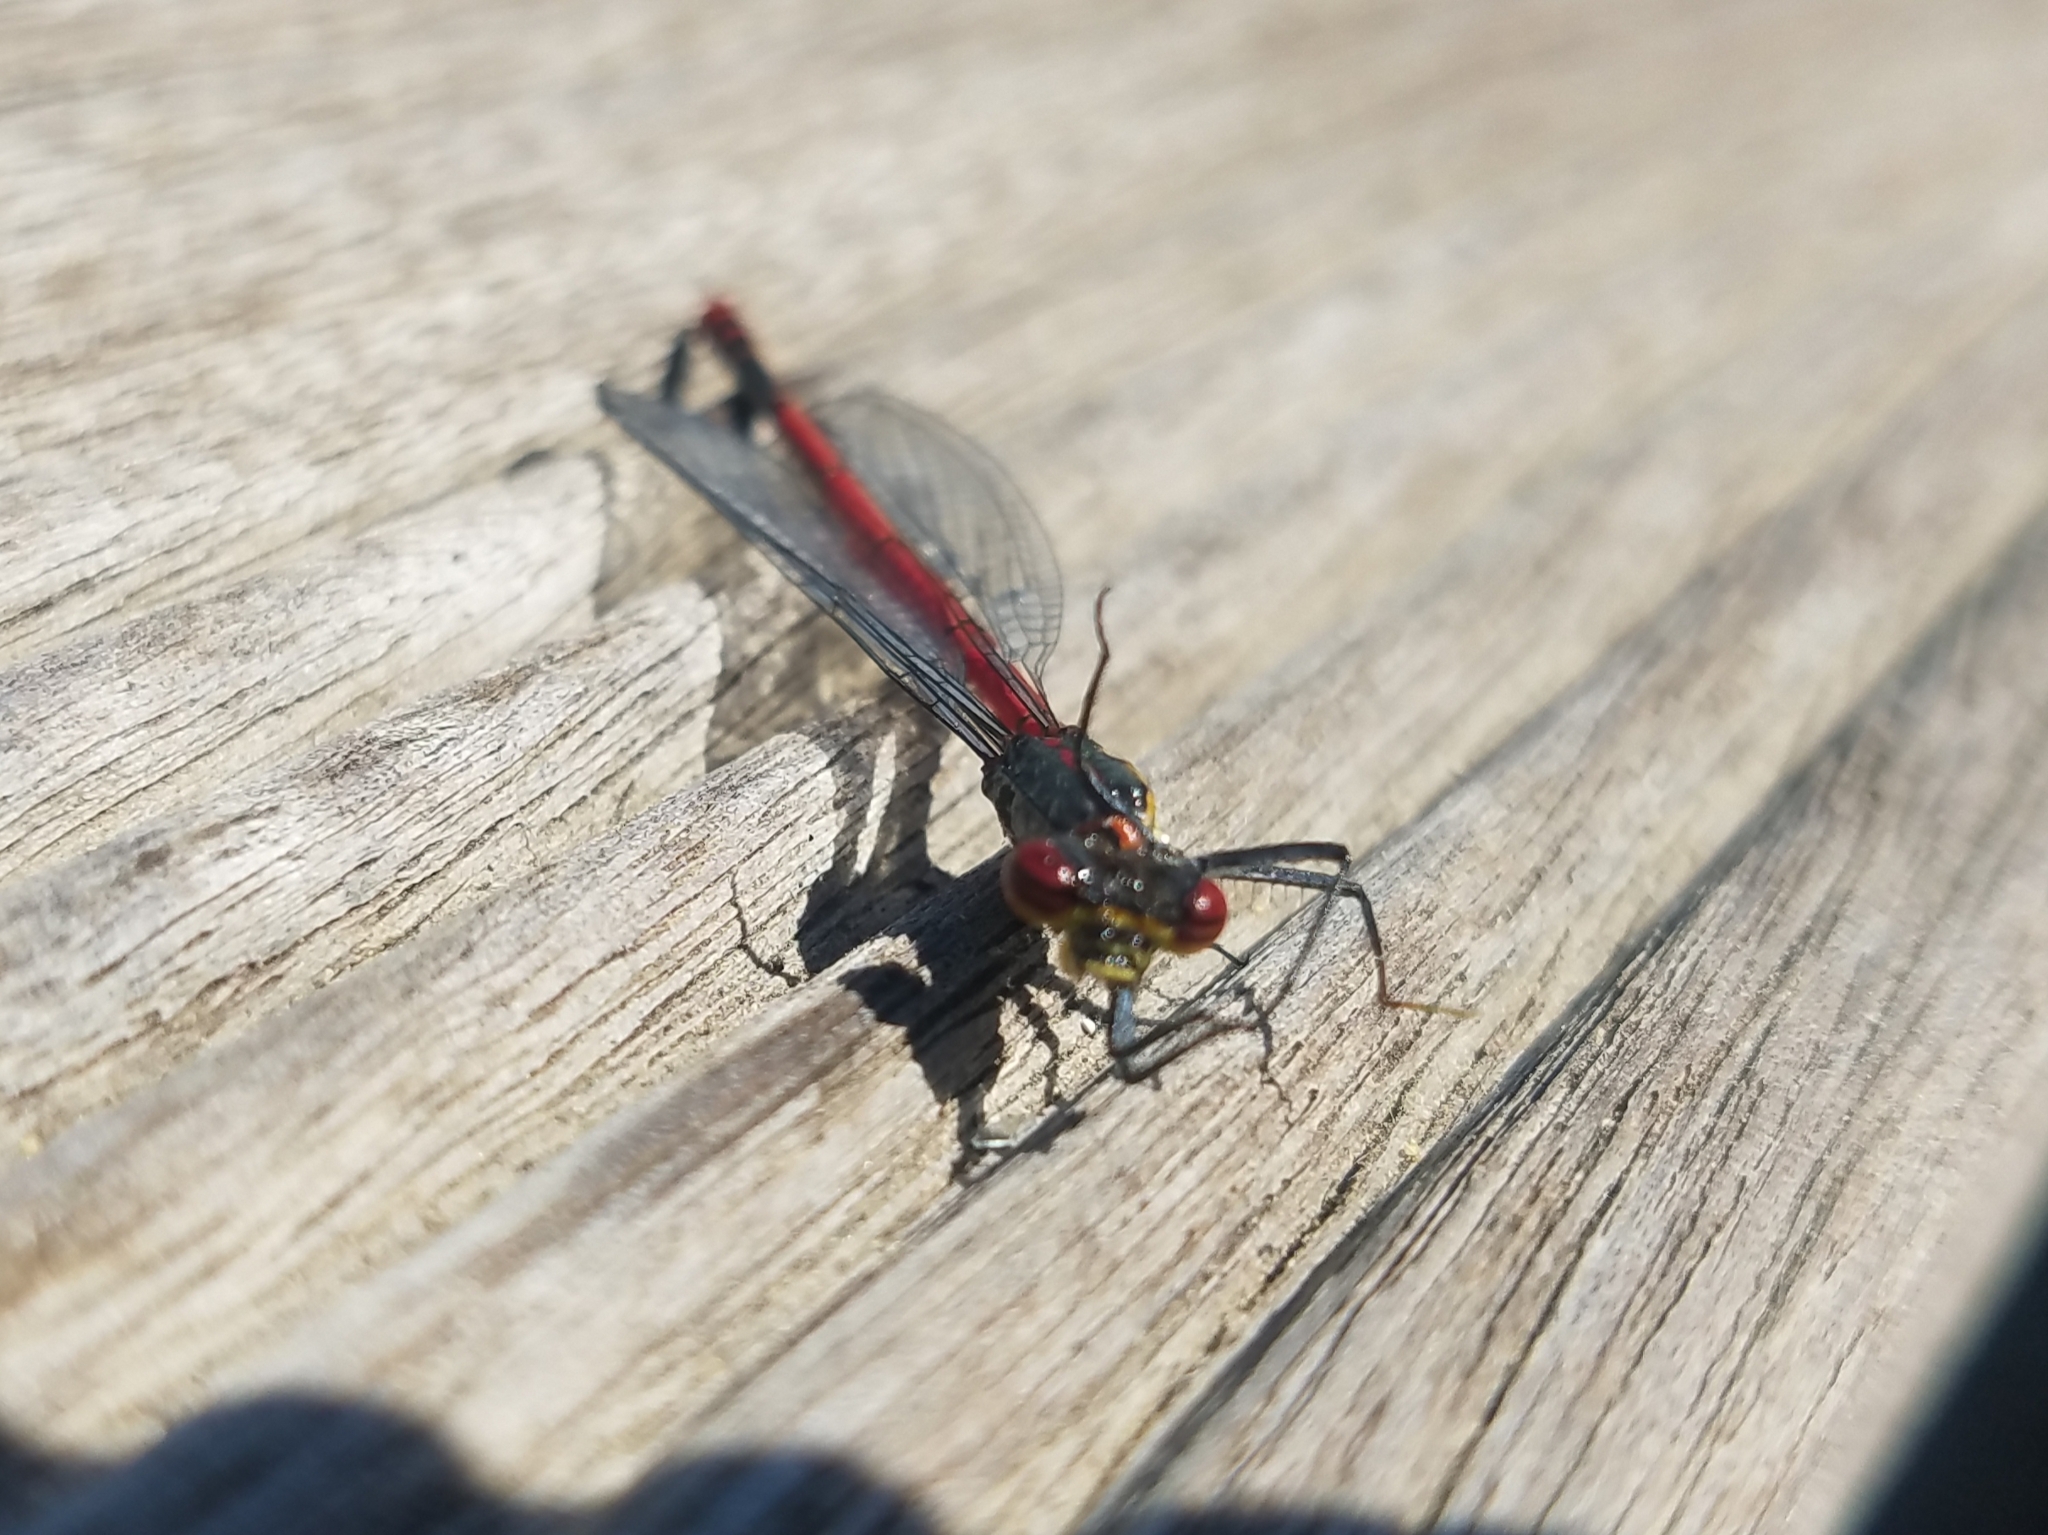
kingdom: Animalia
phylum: Arthropoda
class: Insecta
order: Odonata
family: Coenagrionidae
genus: Pyrrhosoma
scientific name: Pyrrhosoma nymphula
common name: Large red damsel
